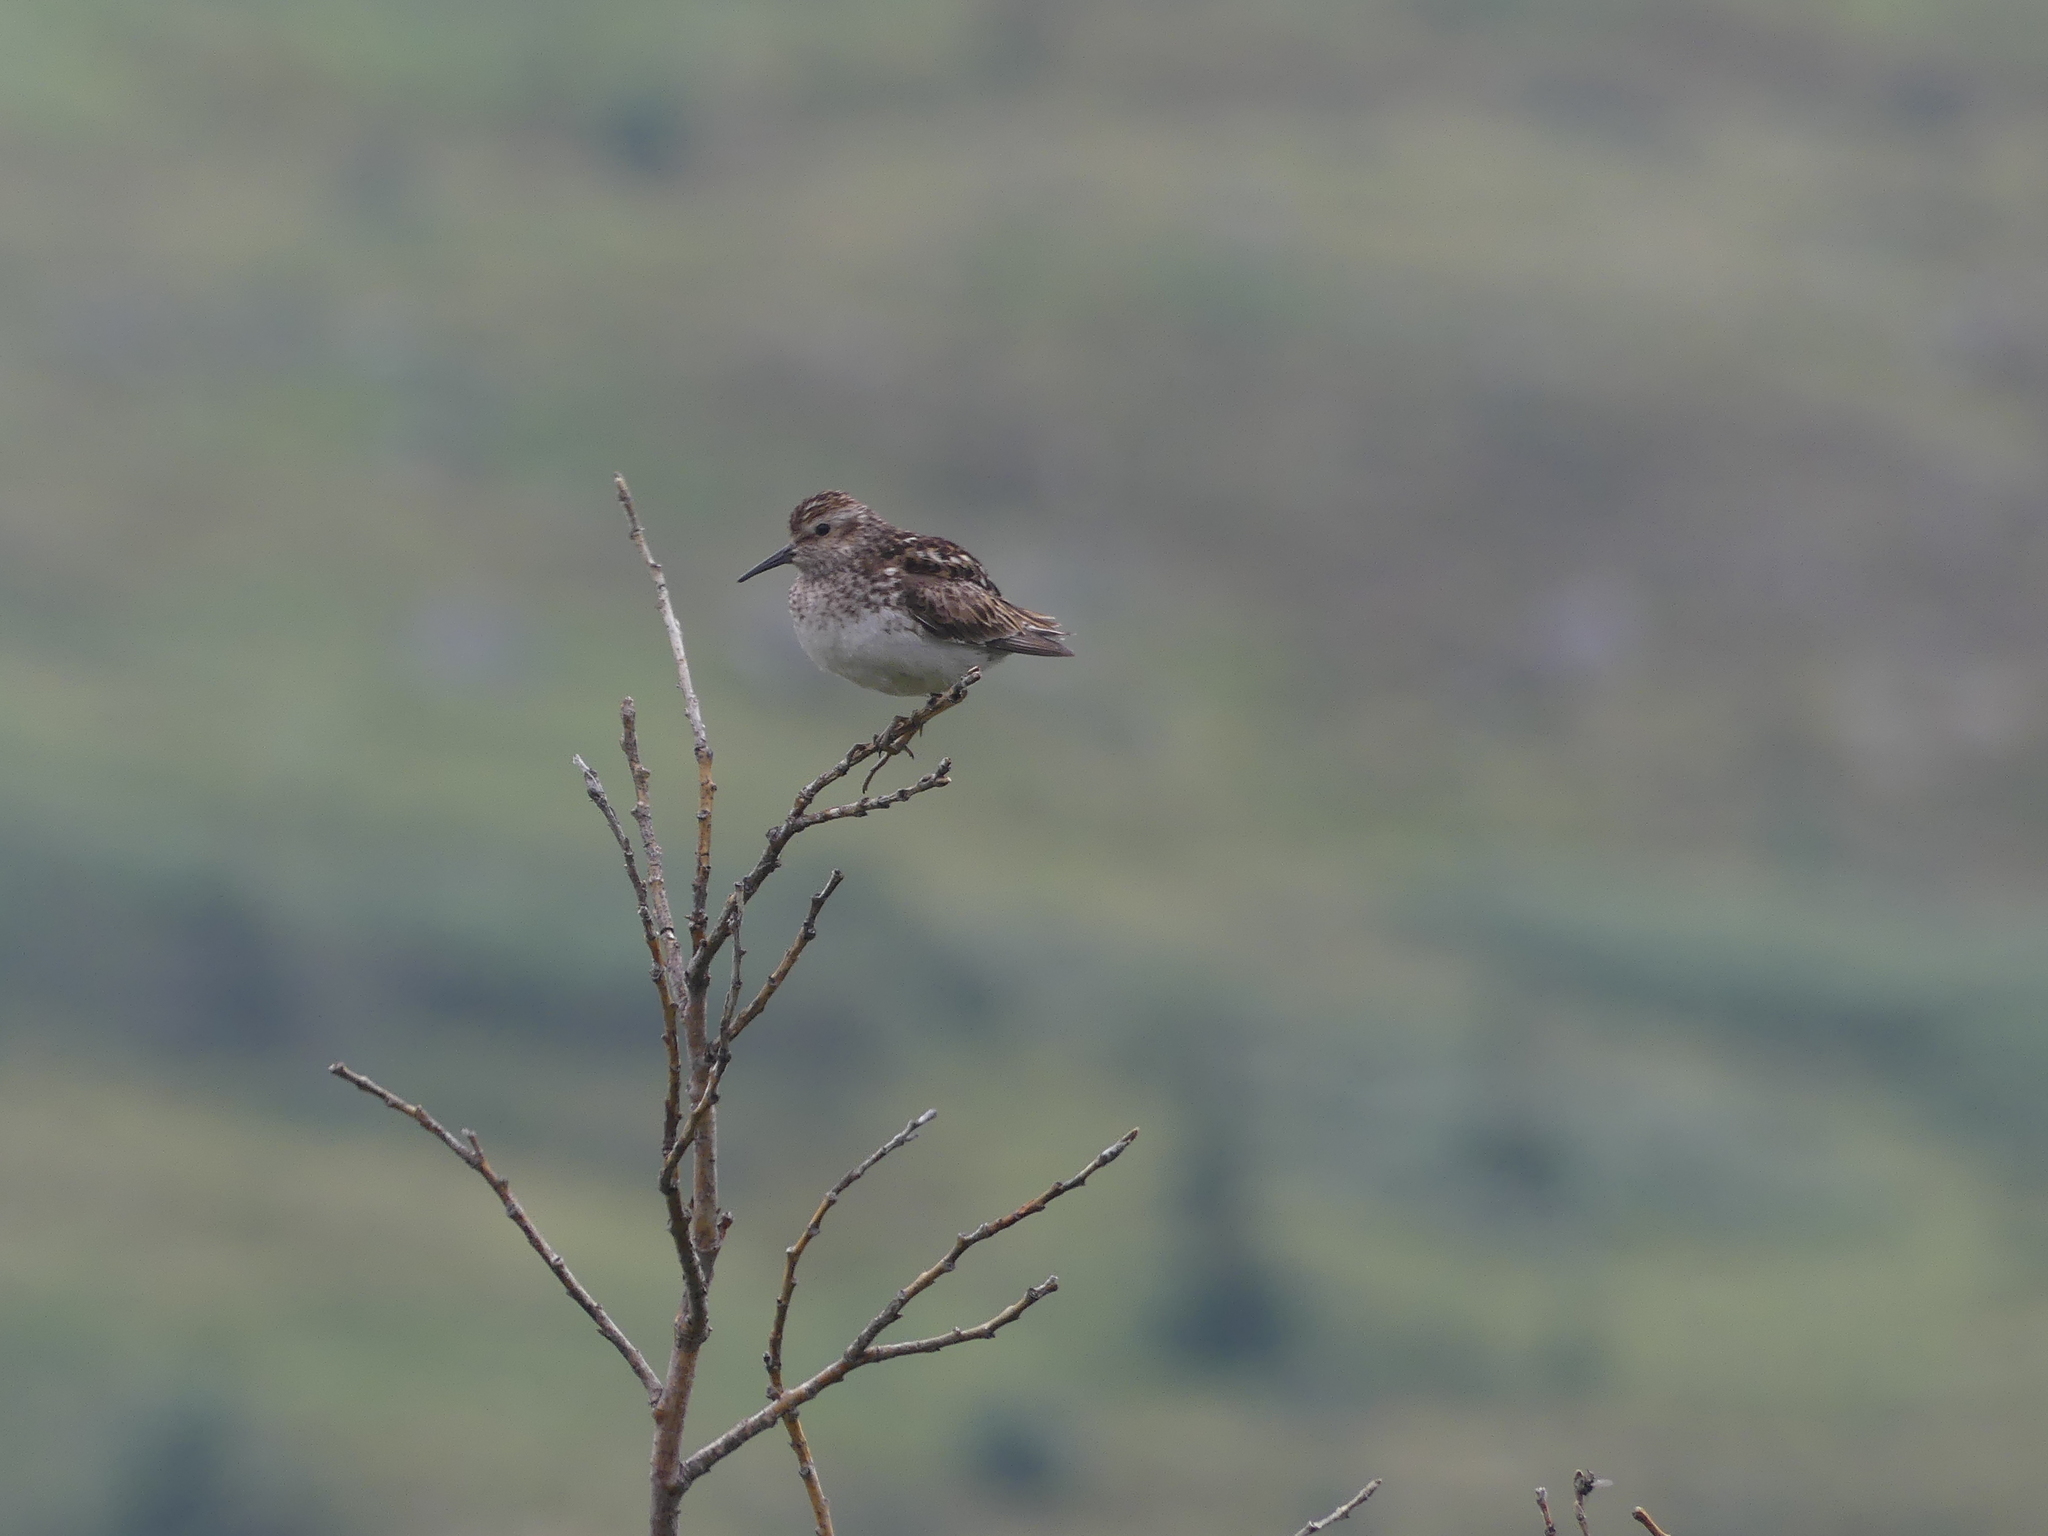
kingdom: Animalia
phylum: Chordata
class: Aves
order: Charadriiformes
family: Scolopacidae
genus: Calidris
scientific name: Calidris minutilla
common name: Least sandpiper
